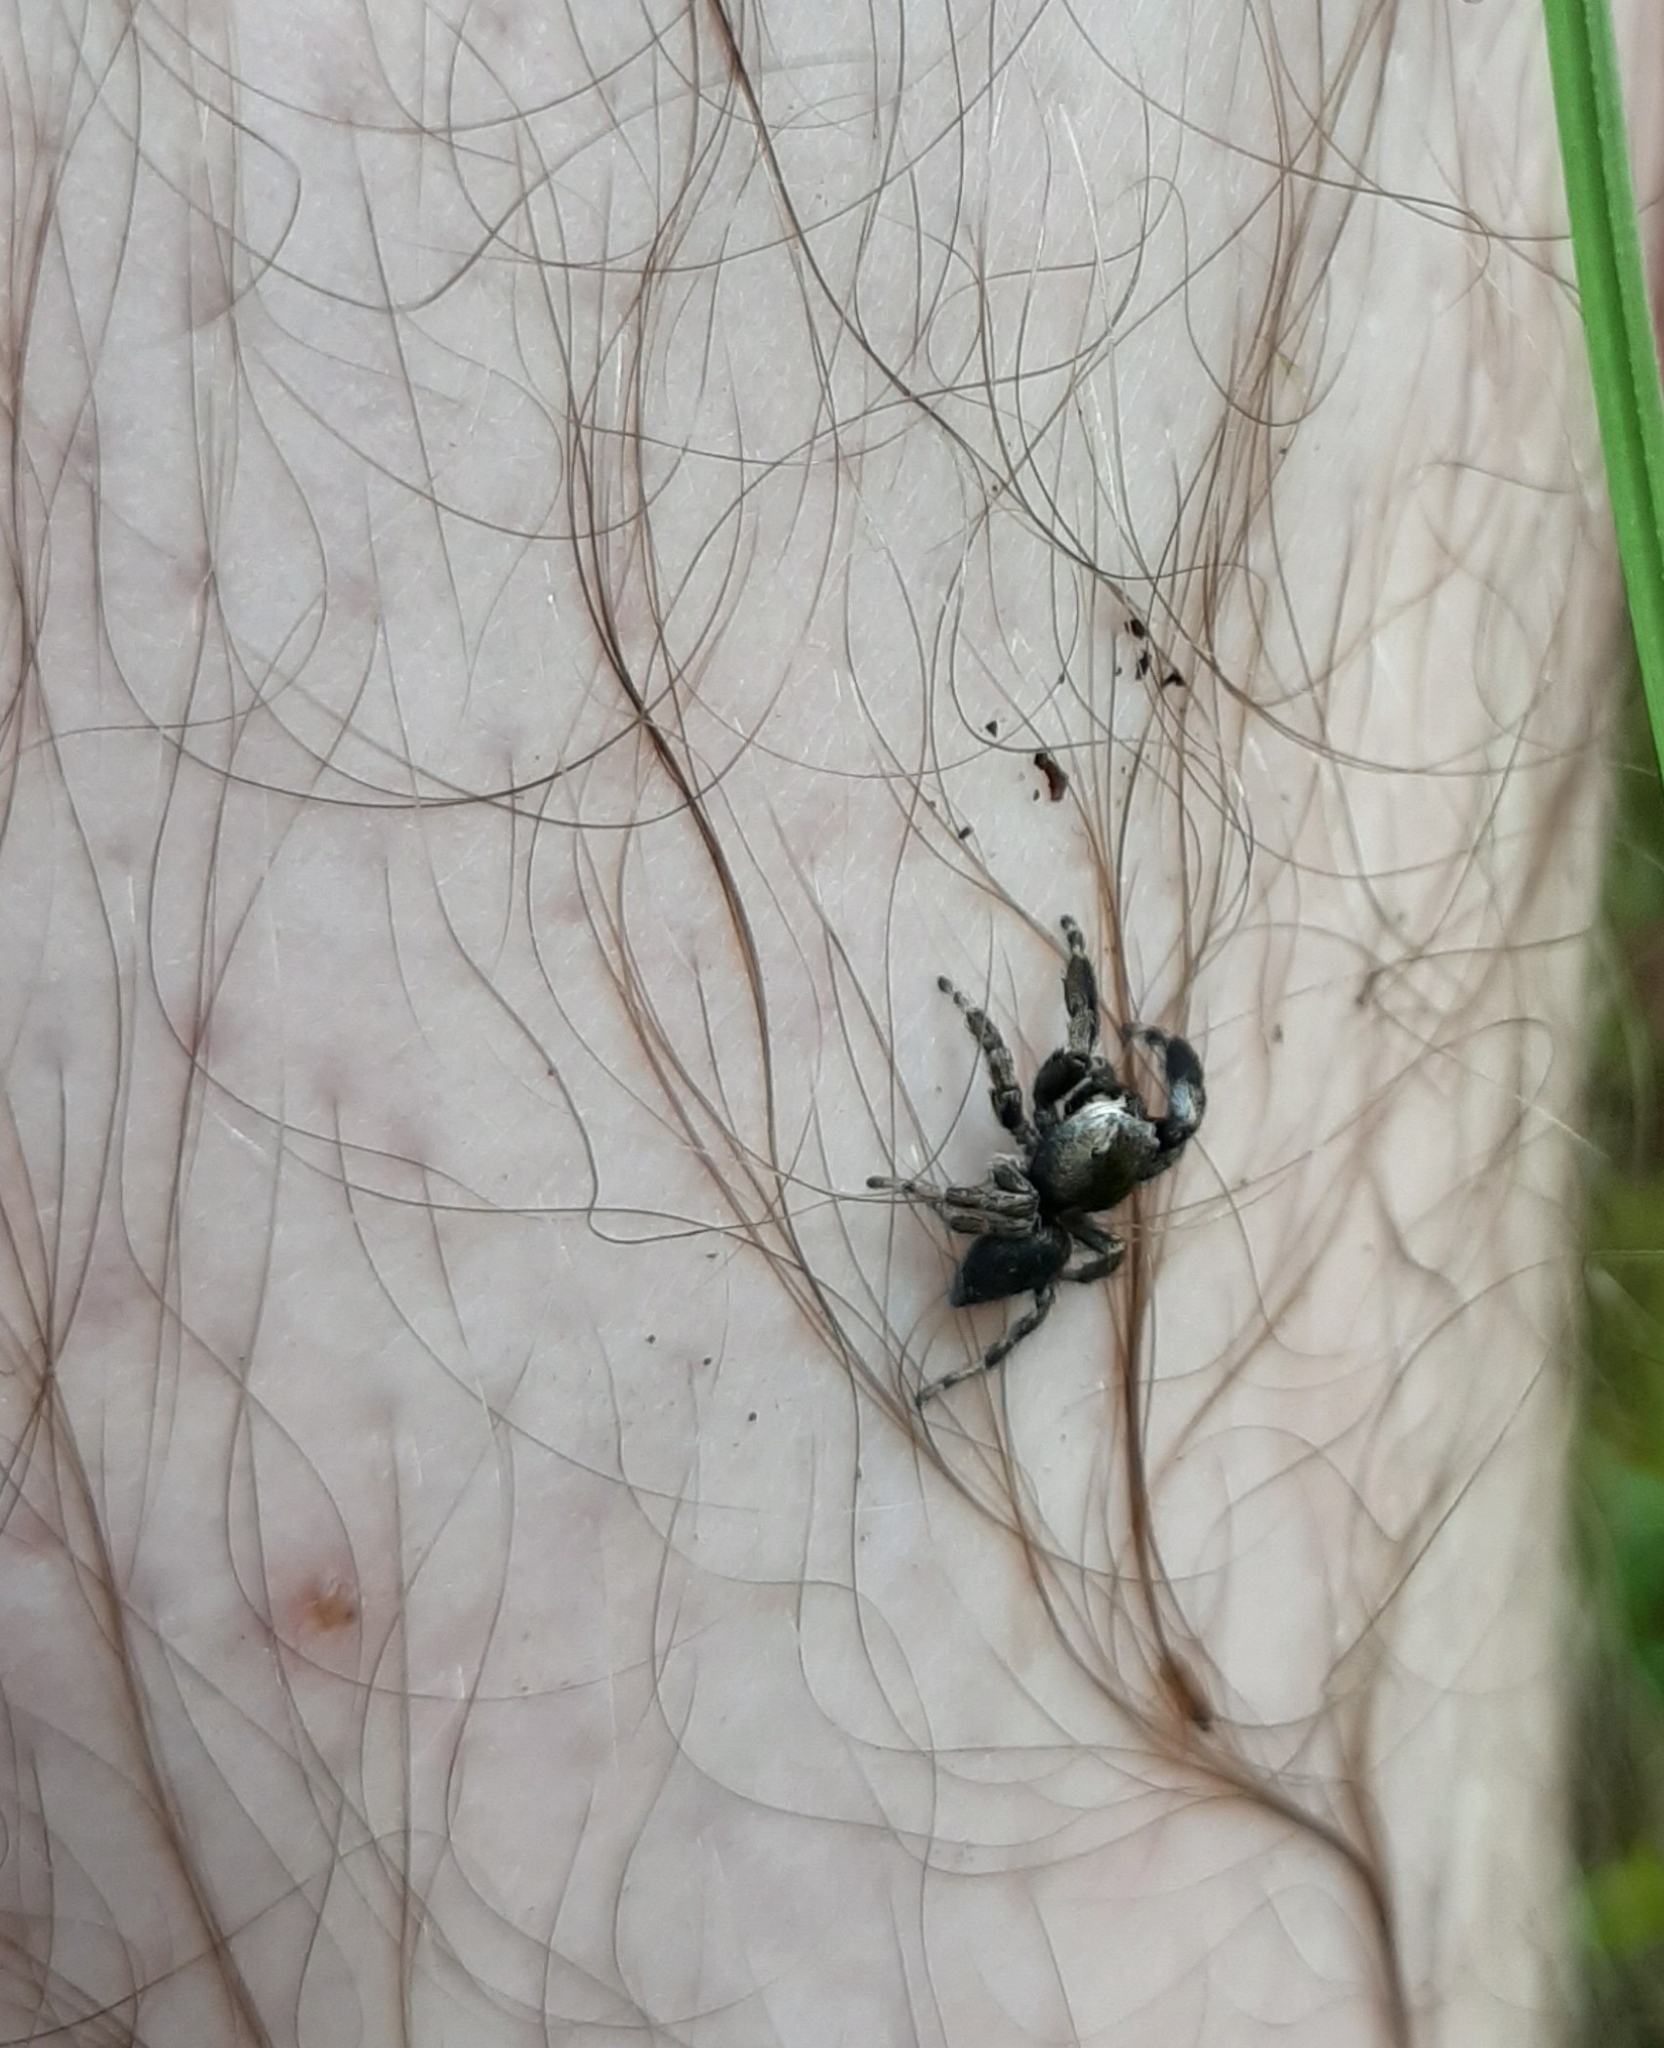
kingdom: Animalia
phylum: Arthropoda
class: Arachnida
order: Araneae
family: Salticidae
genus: Evarcha
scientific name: Evarcha arcuata
